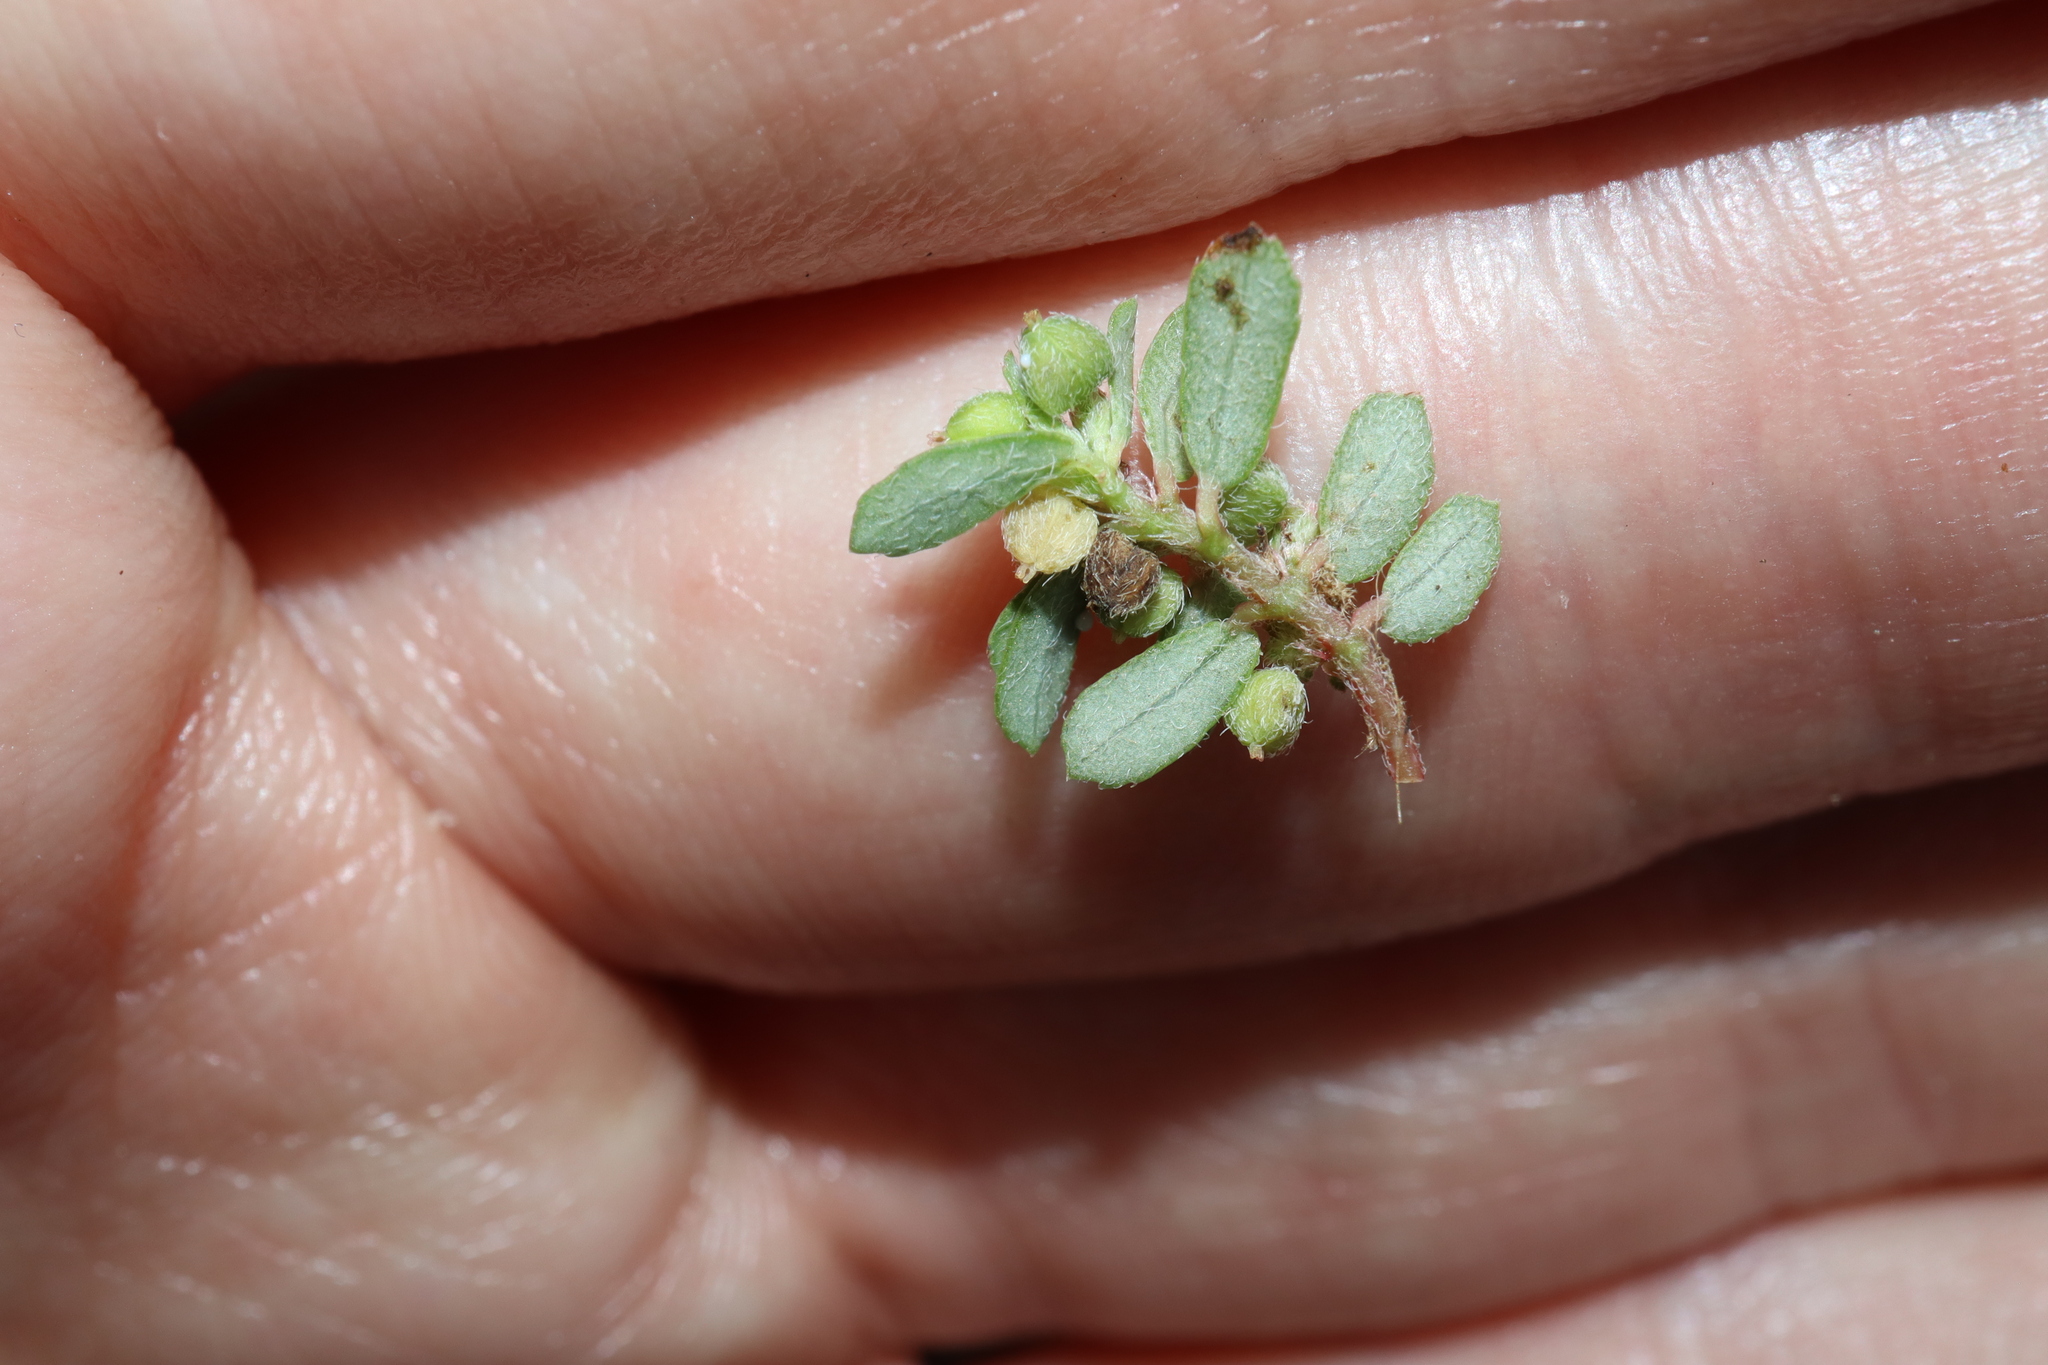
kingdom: Plantae
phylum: Tracheophyta
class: Magnoliopsida
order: Malpighiales
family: Euphorbiaceae
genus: Euphorbia
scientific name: Euphorbia maculata
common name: Spotted spurge
